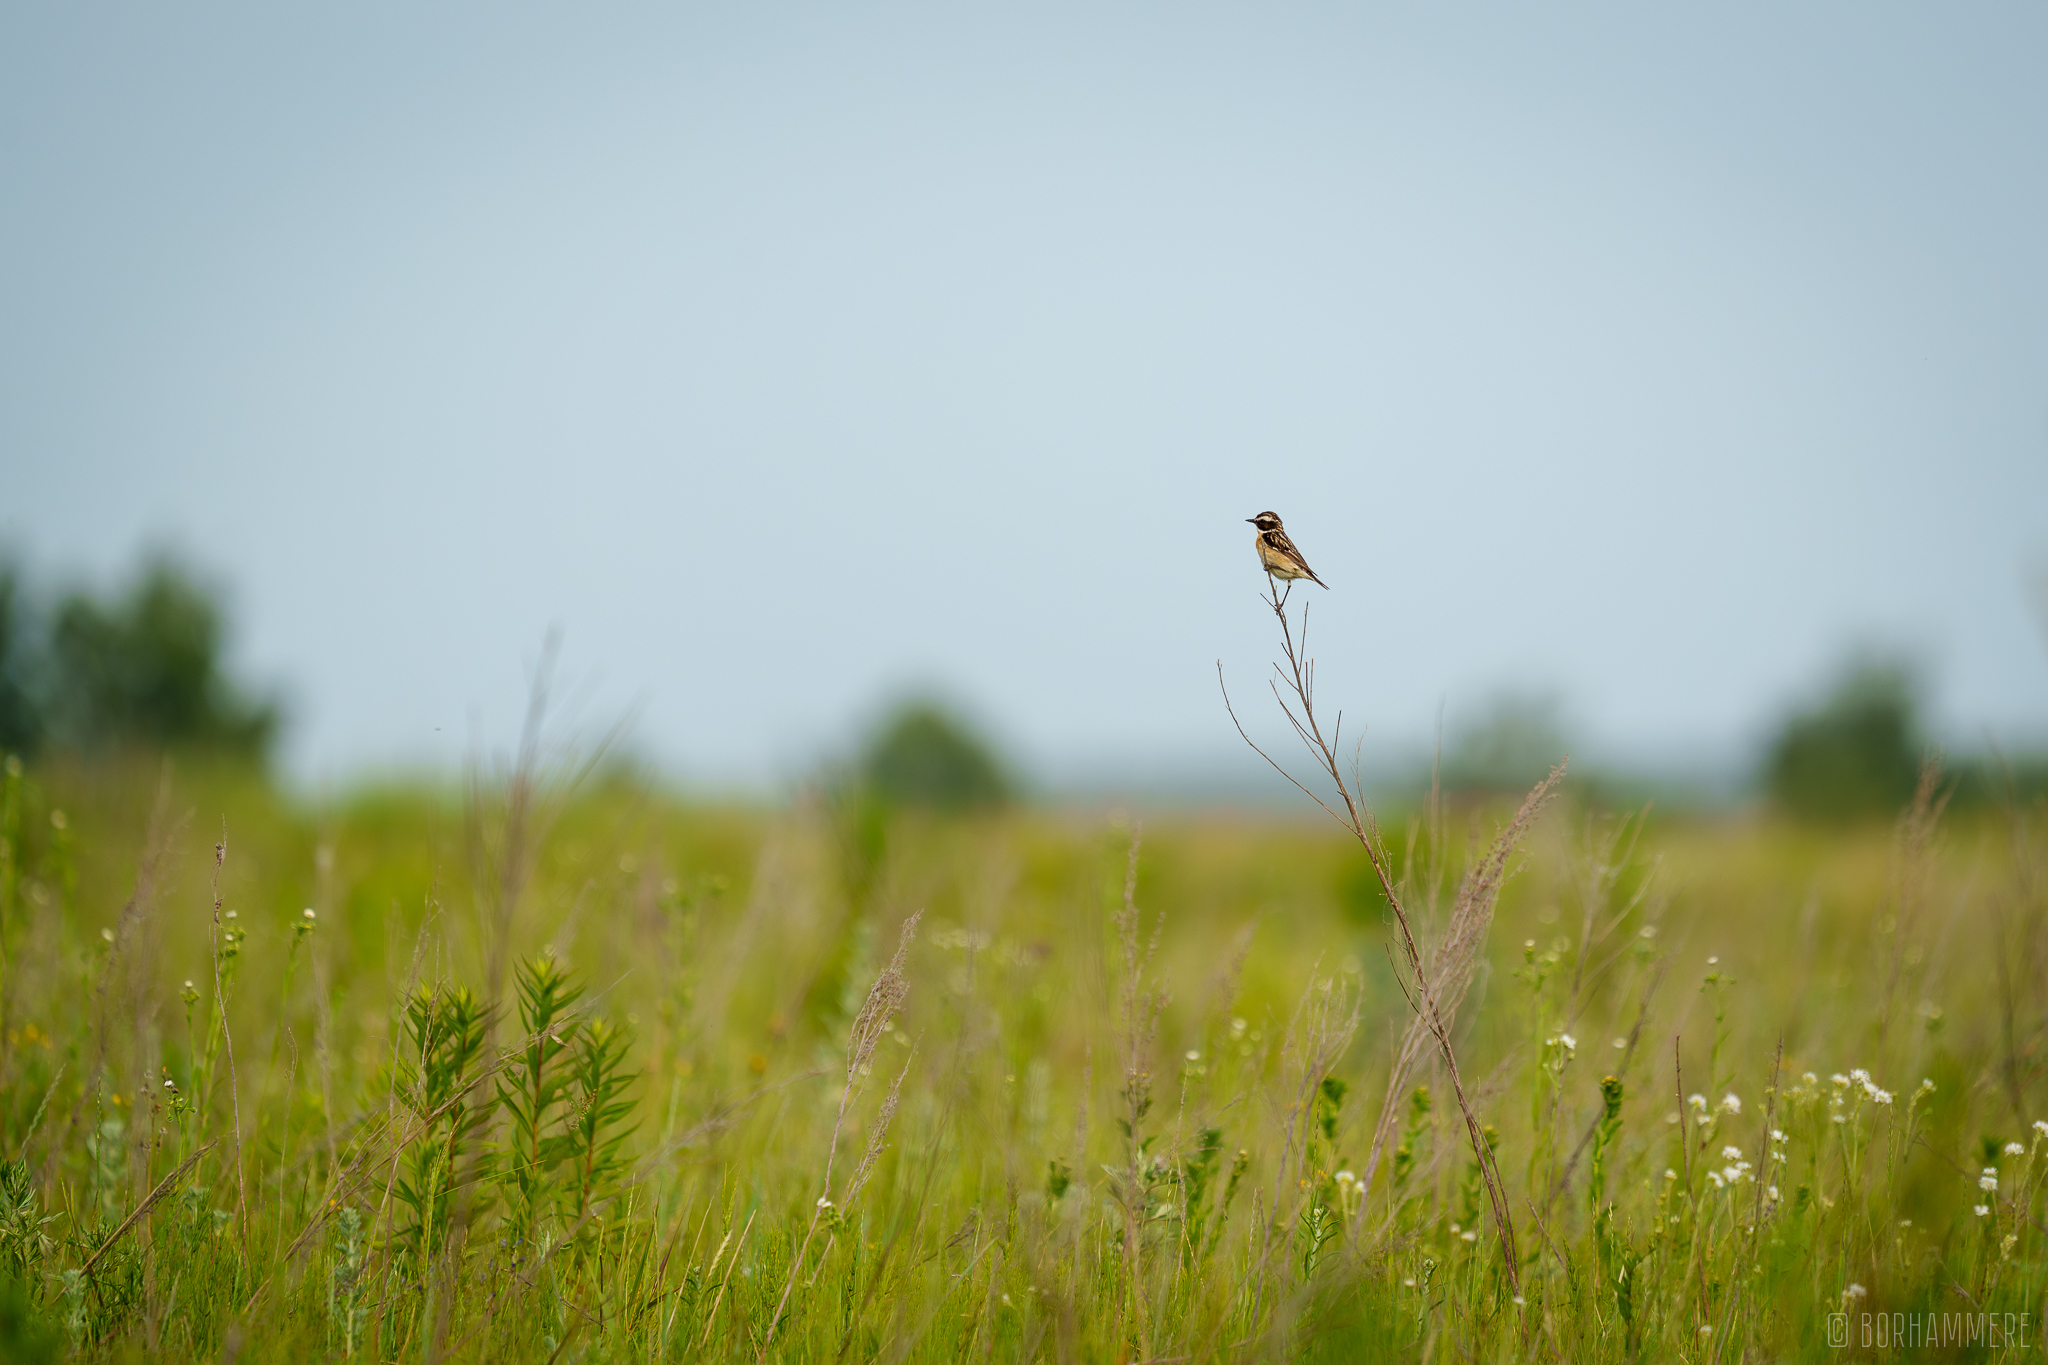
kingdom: Animalia
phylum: Chordata
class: Aves
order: Passeriformes
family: Muscicapidae
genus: Saxicola
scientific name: Saxicola rubetra
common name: Whinchat
